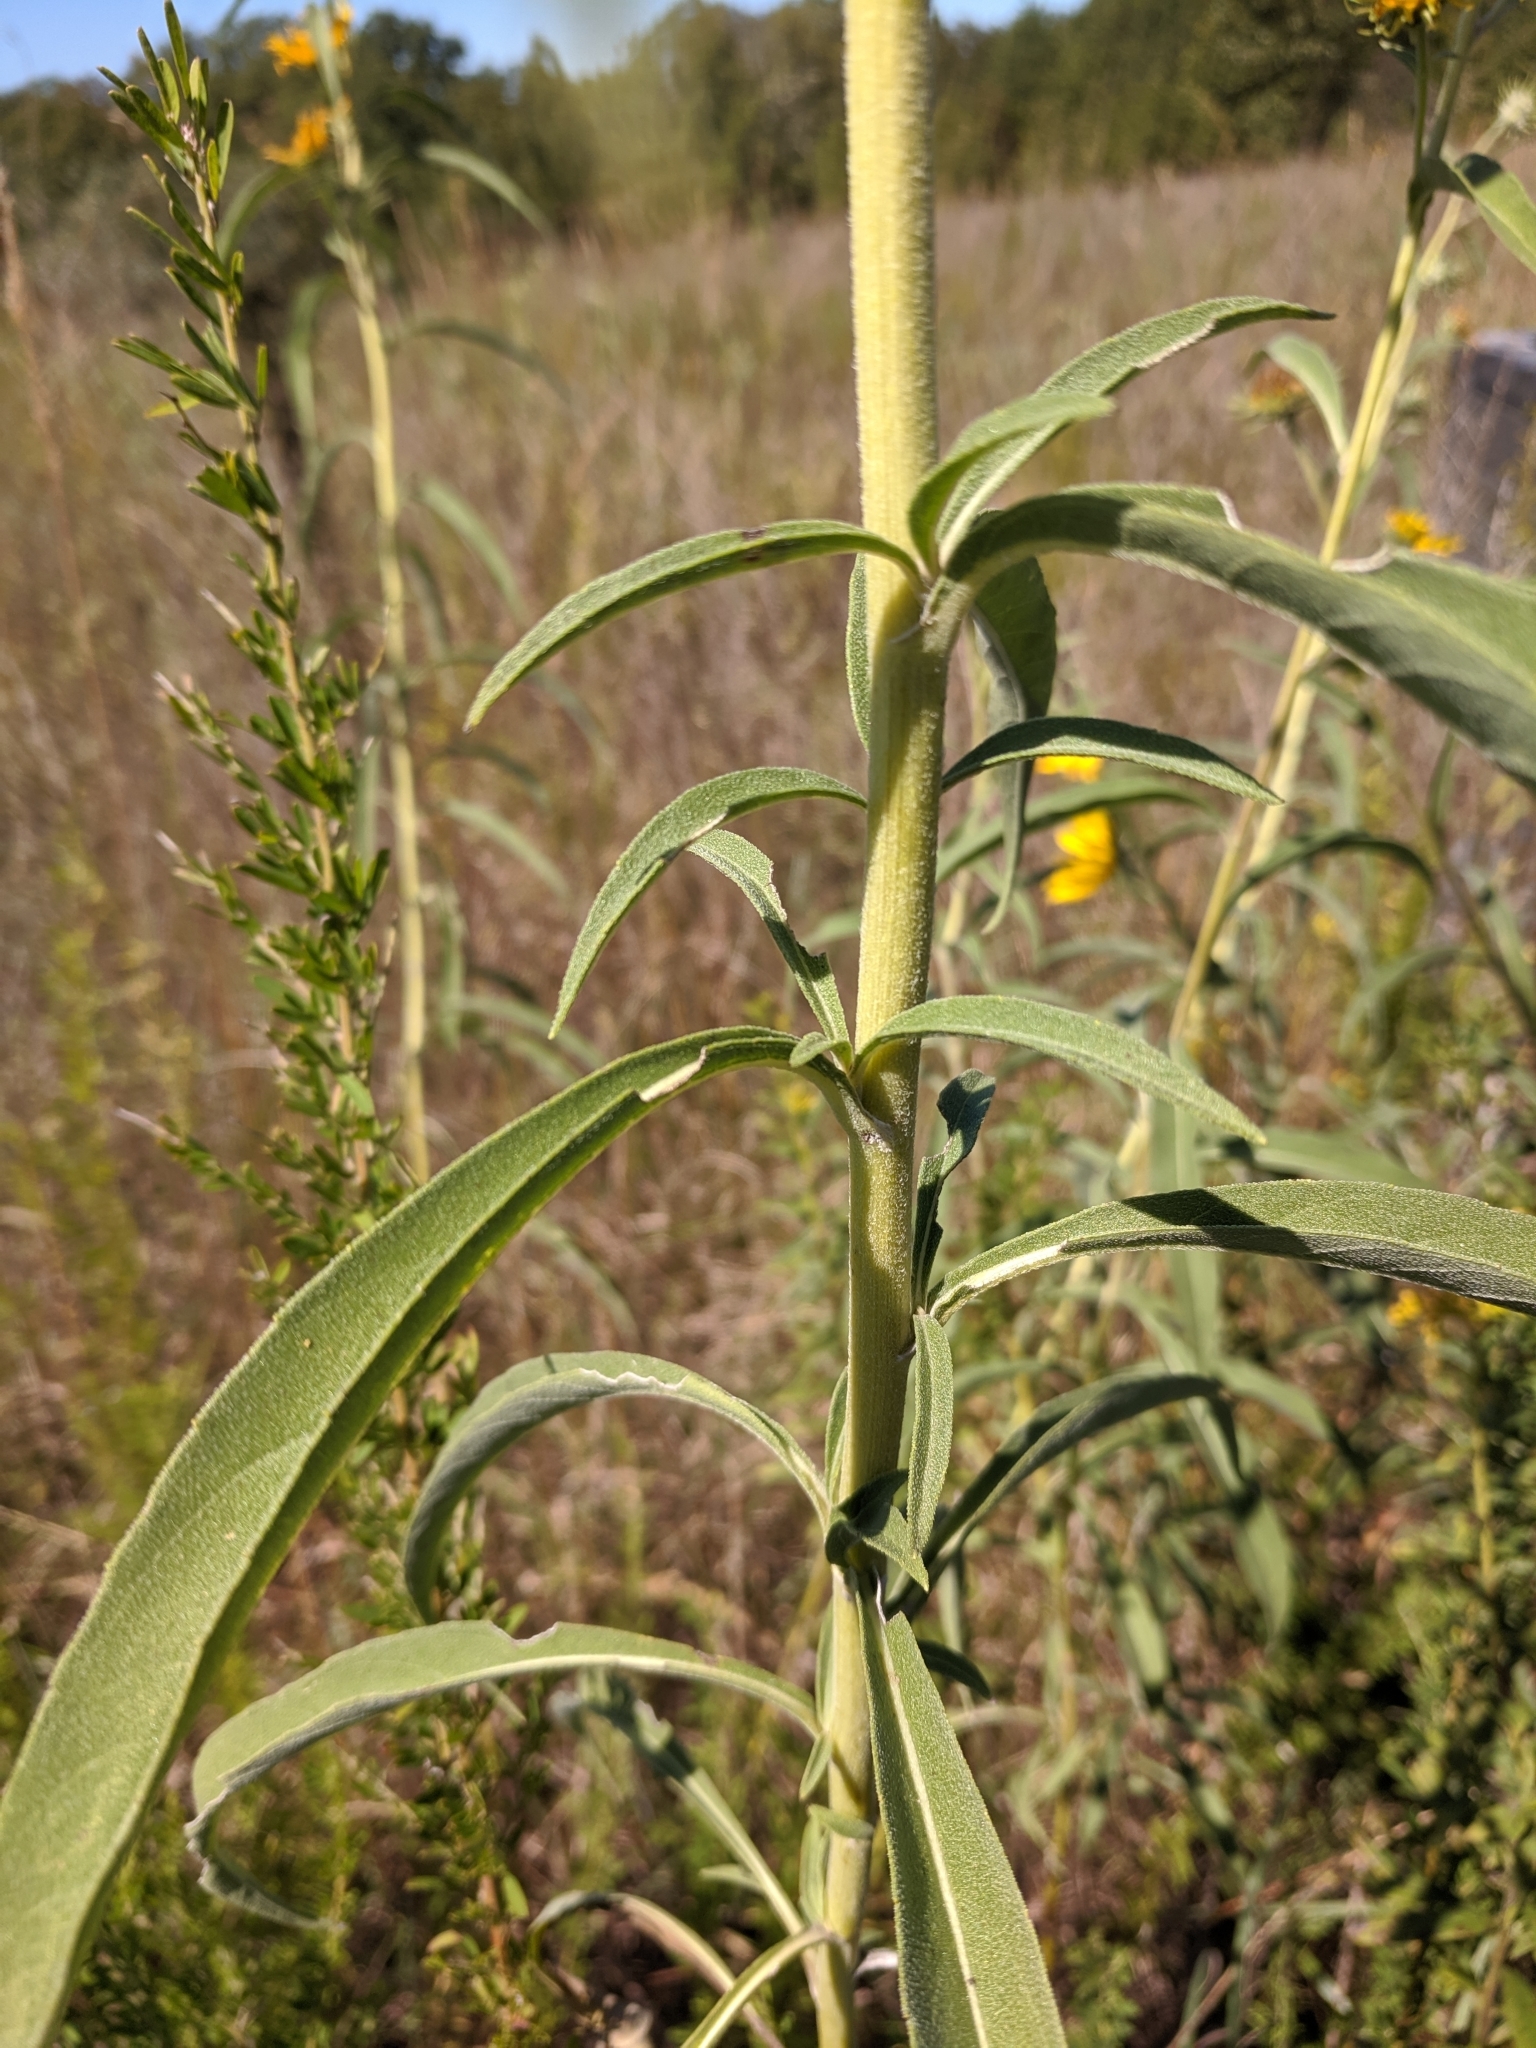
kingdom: Plantae
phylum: Tracheophyta
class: Magnoliopsida
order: Asterales
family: Asteraceae
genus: Helianthus
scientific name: Helianthus maximiliani
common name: Maximilian's sunflower
